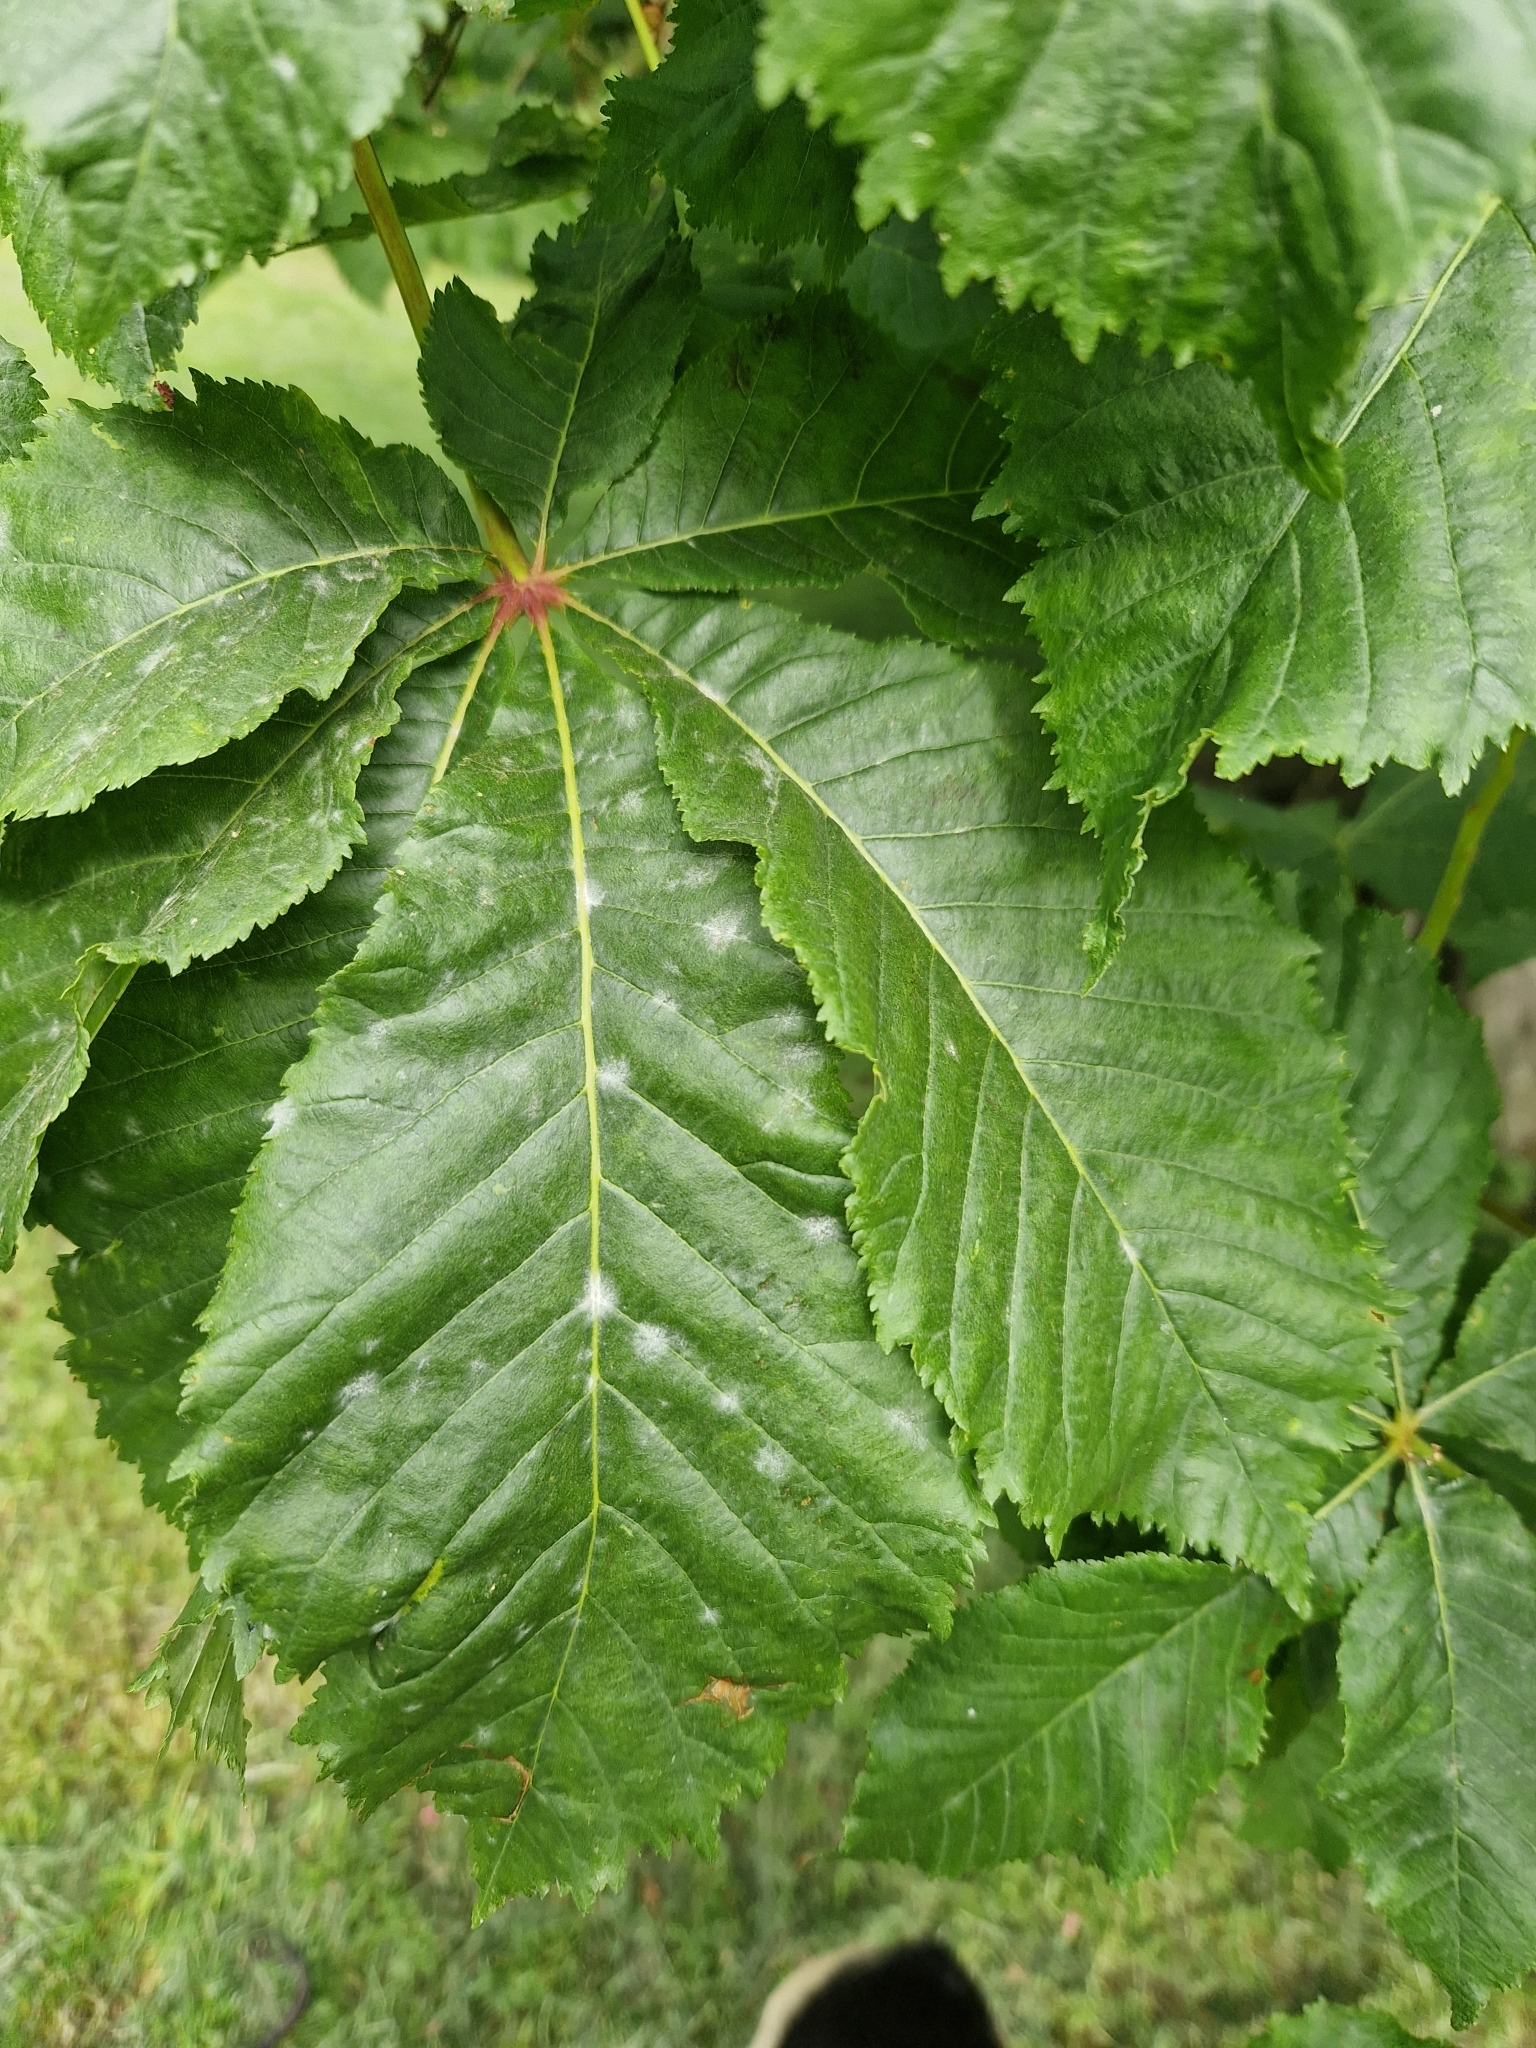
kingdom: Fungi
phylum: Ascomycota
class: Leotiomycetes
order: Helotiales
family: Erysiphaceae
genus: Erysiphe
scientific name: Erysiphe flexuosa
